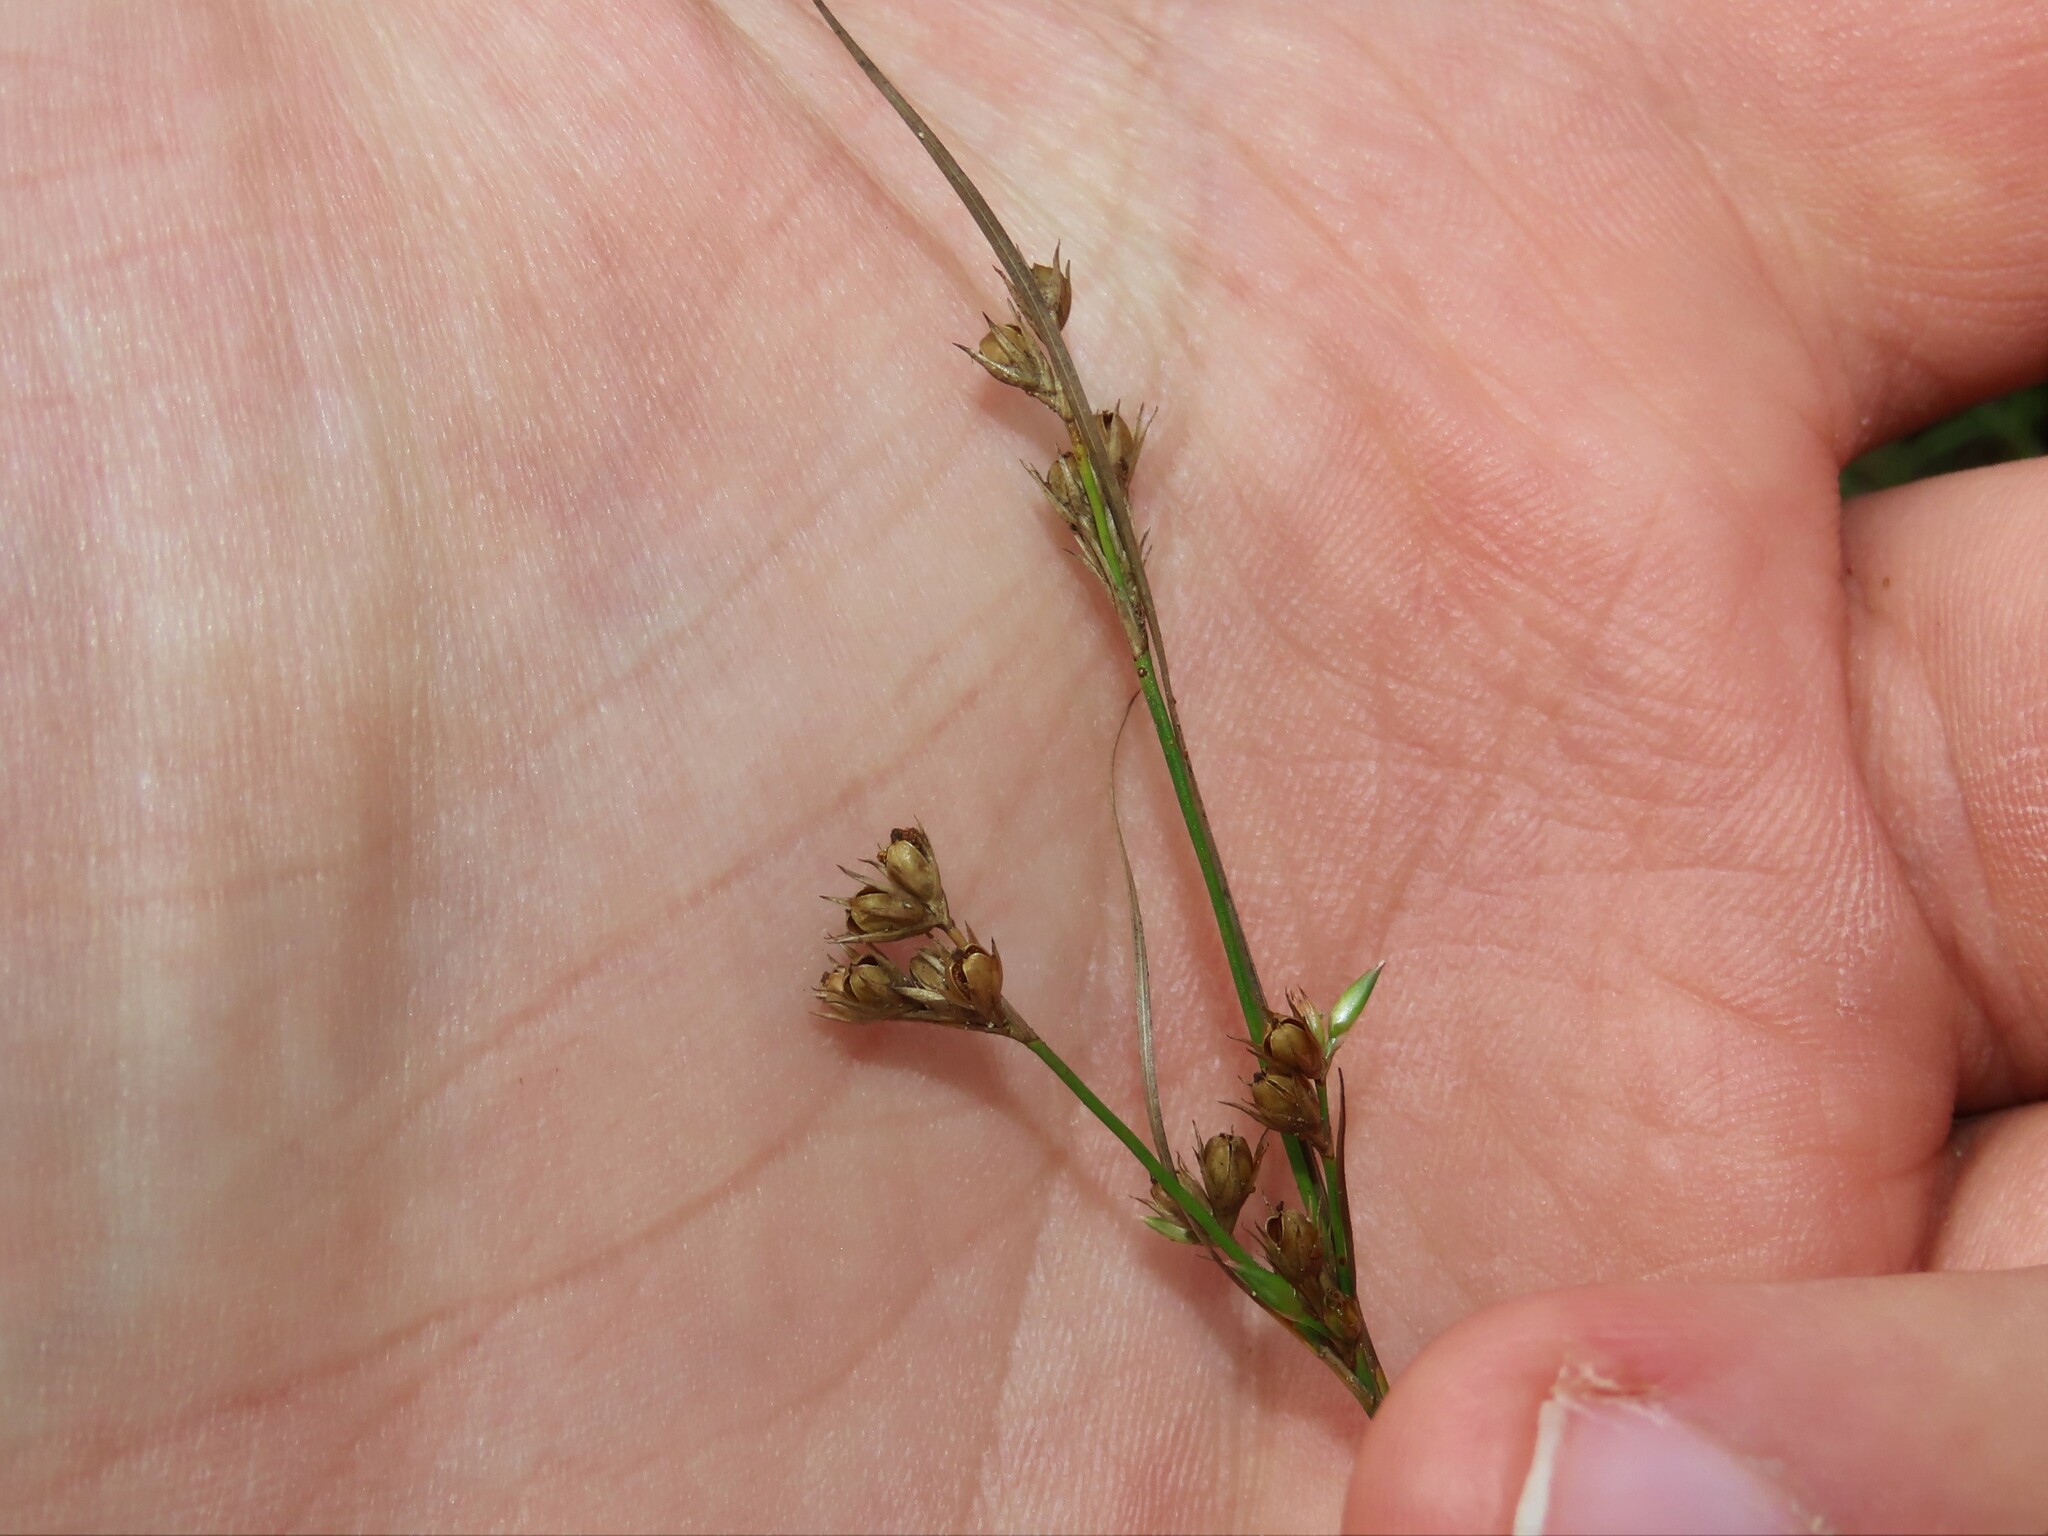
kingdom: Plantae
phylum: Tracheophyta
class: Liliopsida
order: Poales
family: Juncaceae
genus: Juncus
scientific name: Juncus tenuis
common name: Slender rush
